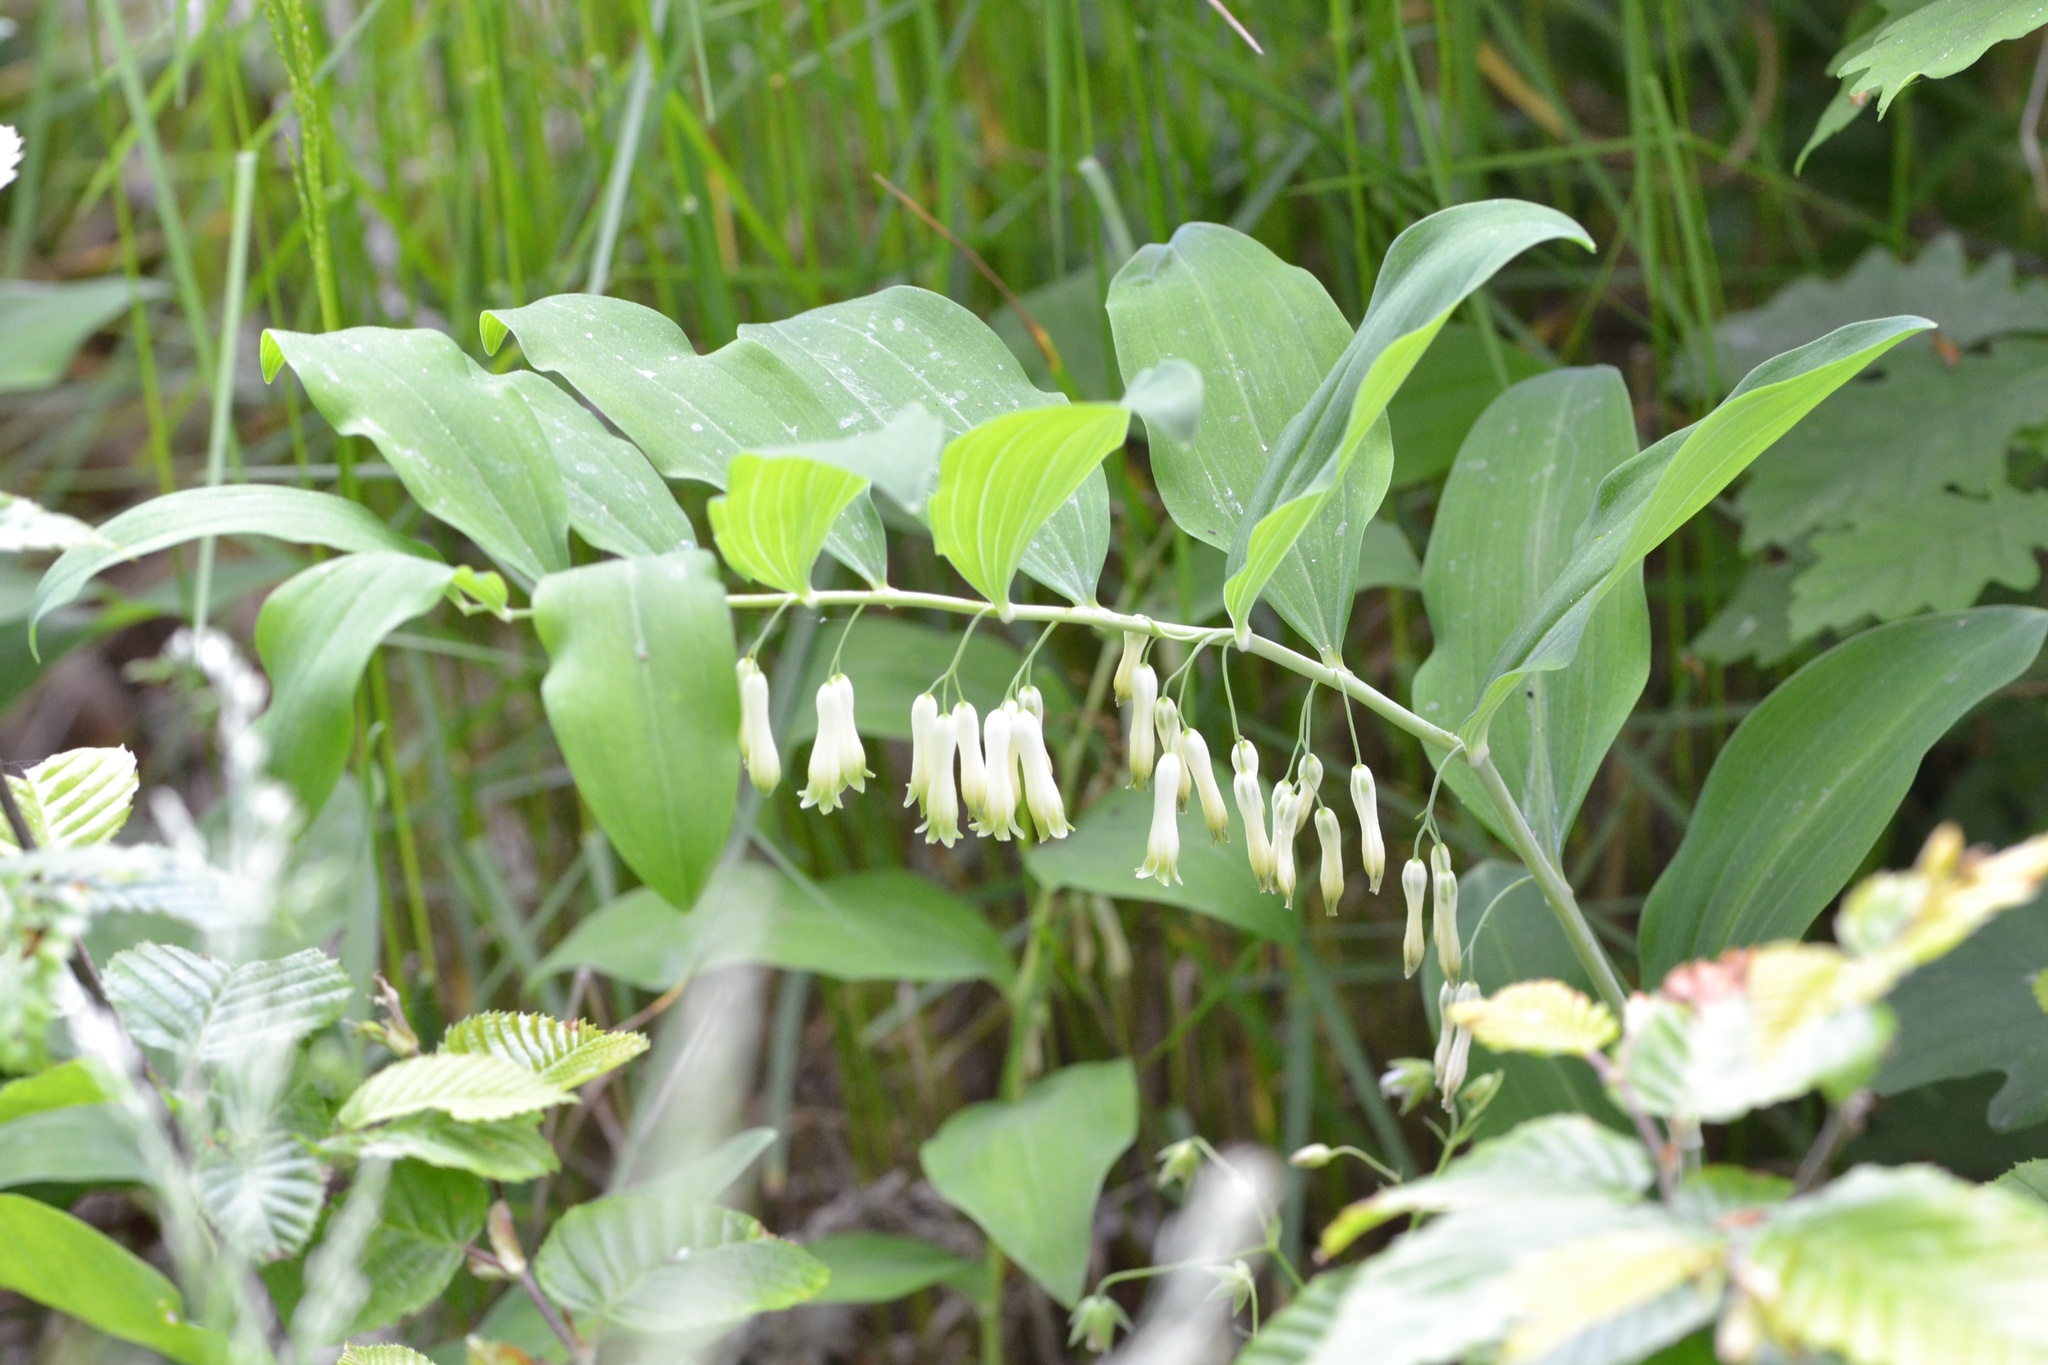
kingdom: Plantae
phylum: Tracheophyta
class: Liliopsida
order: Asparagales
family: Asparagaceae
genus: Polygonatum
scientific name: Polygonatum multiflorum
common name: Solomon's-seal
